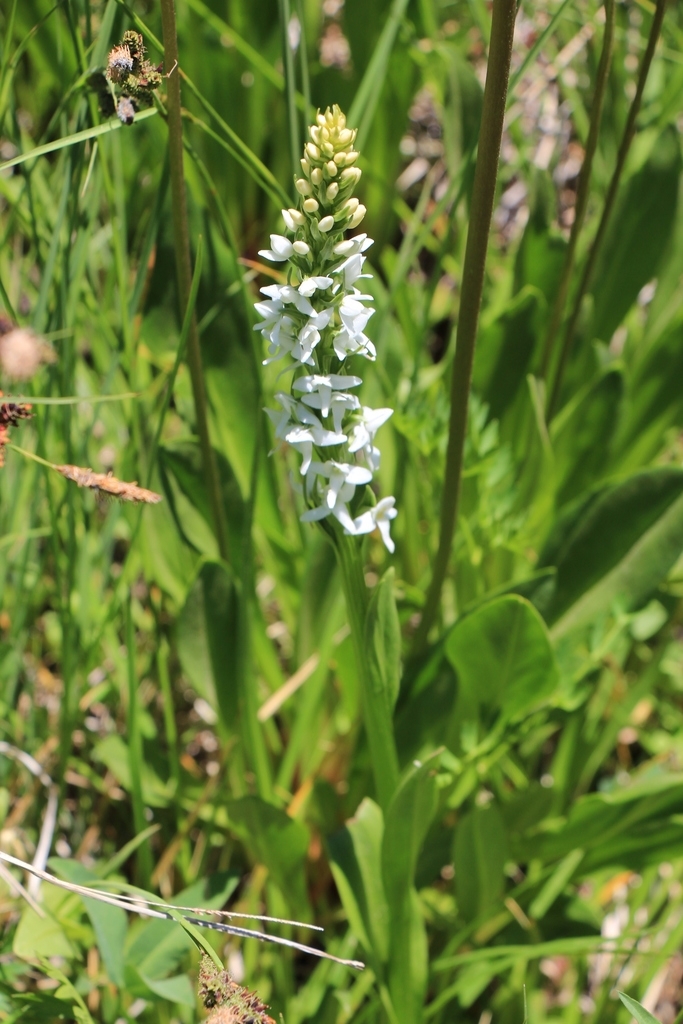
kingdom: Plantae
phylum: Tracheophyta
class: Liliopsida
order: Asparagales
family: Orchidaceae
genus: Platanthera
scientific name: Platanthera dilatata
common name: Bog candles
